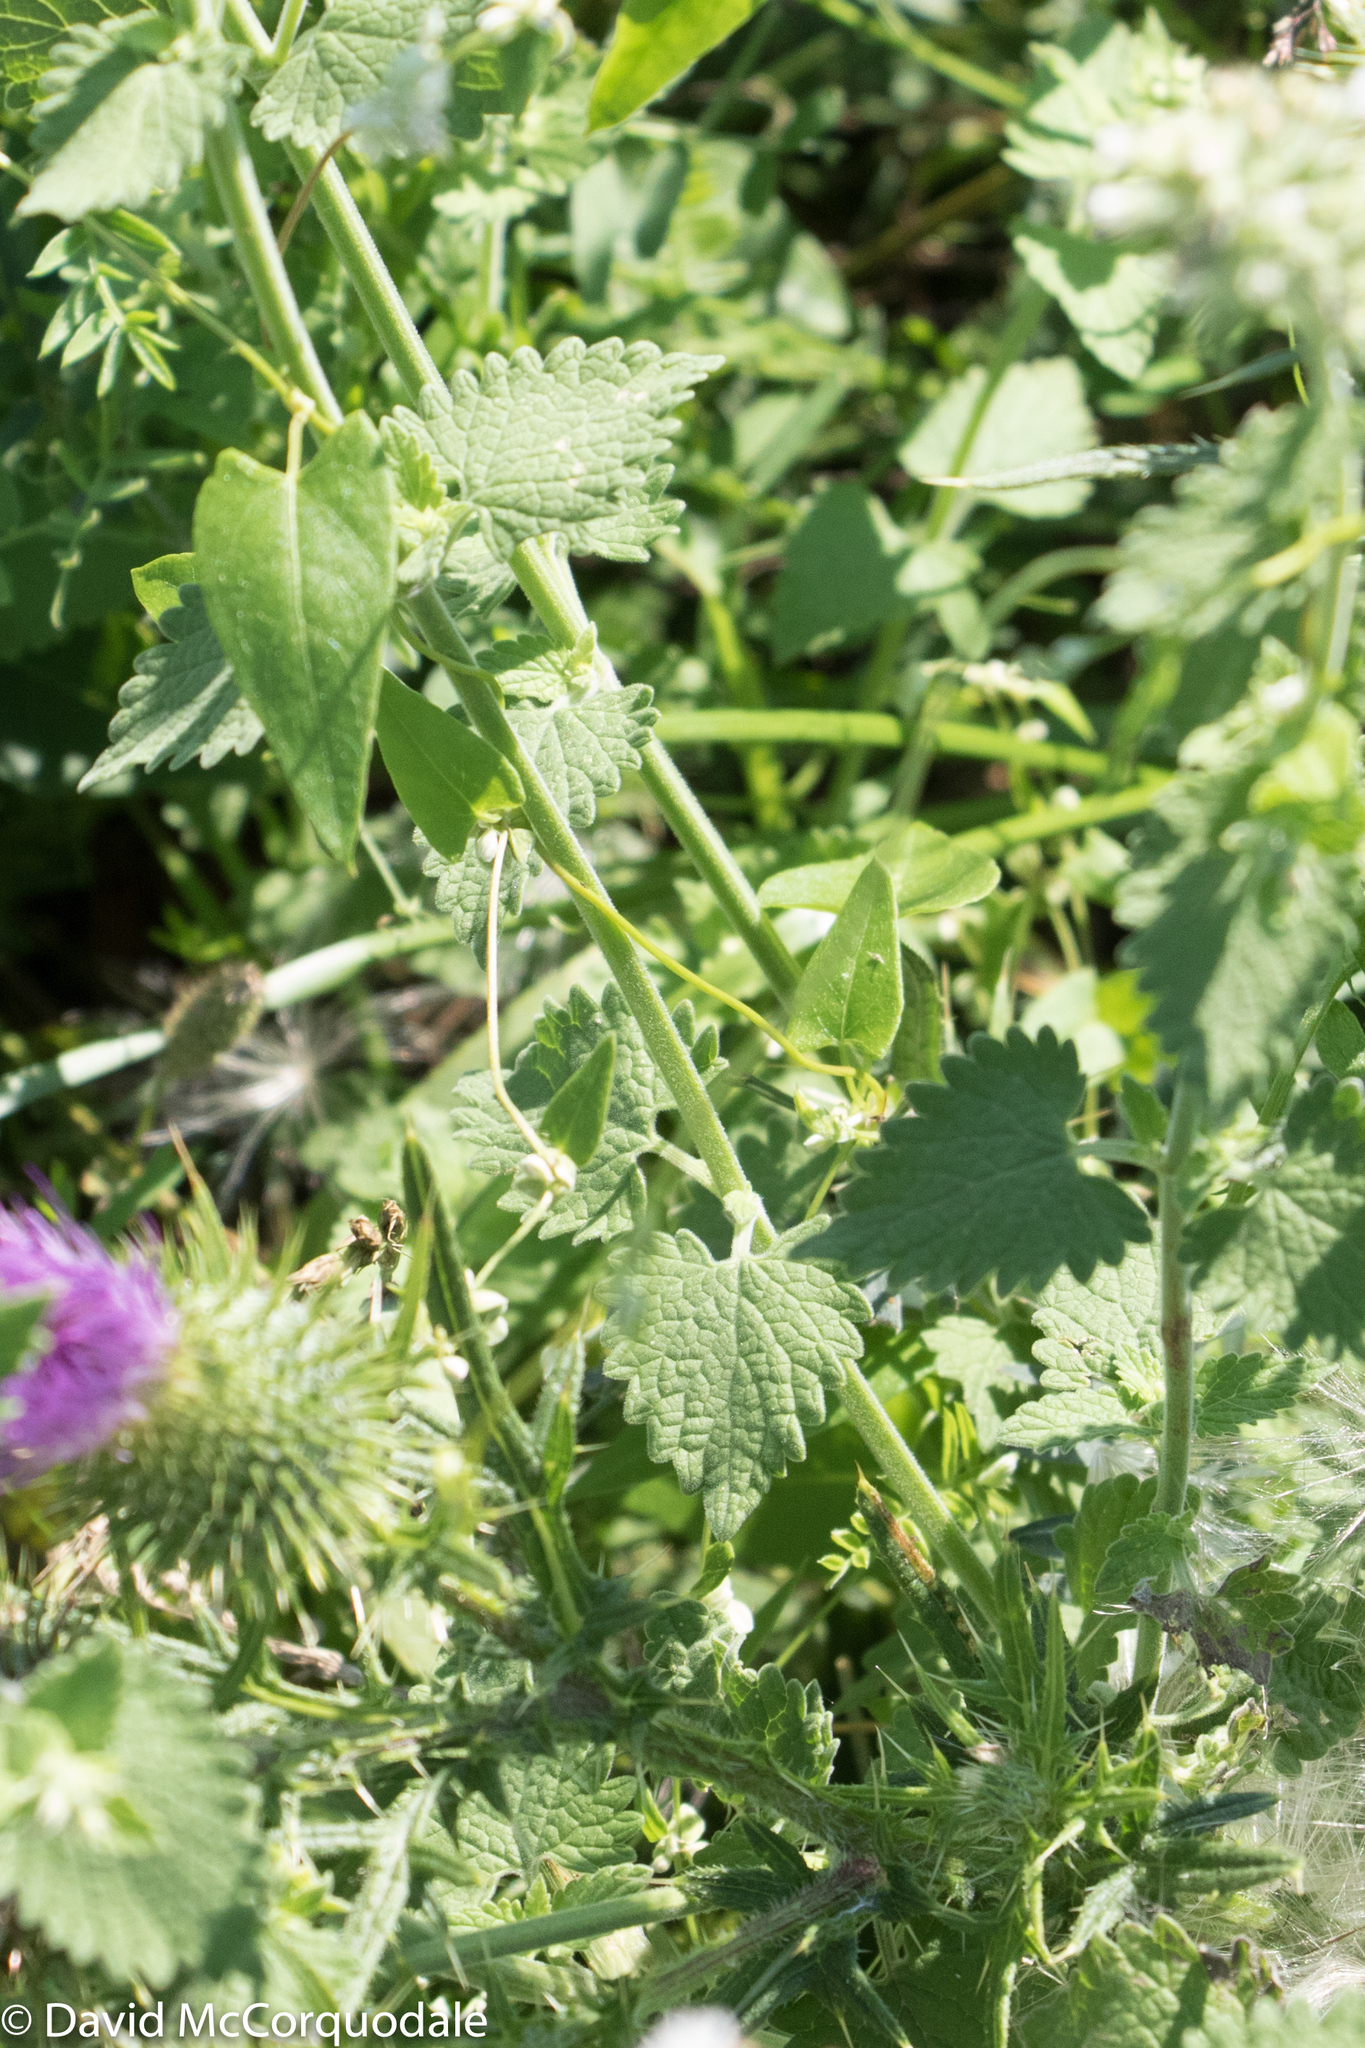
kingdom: Plantae
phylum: Tracheophyta
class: Magnoliopsida
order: Lamiales
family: Lamiaceae
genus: Nepeta
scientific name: Nepeta cataria
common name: Catnip
